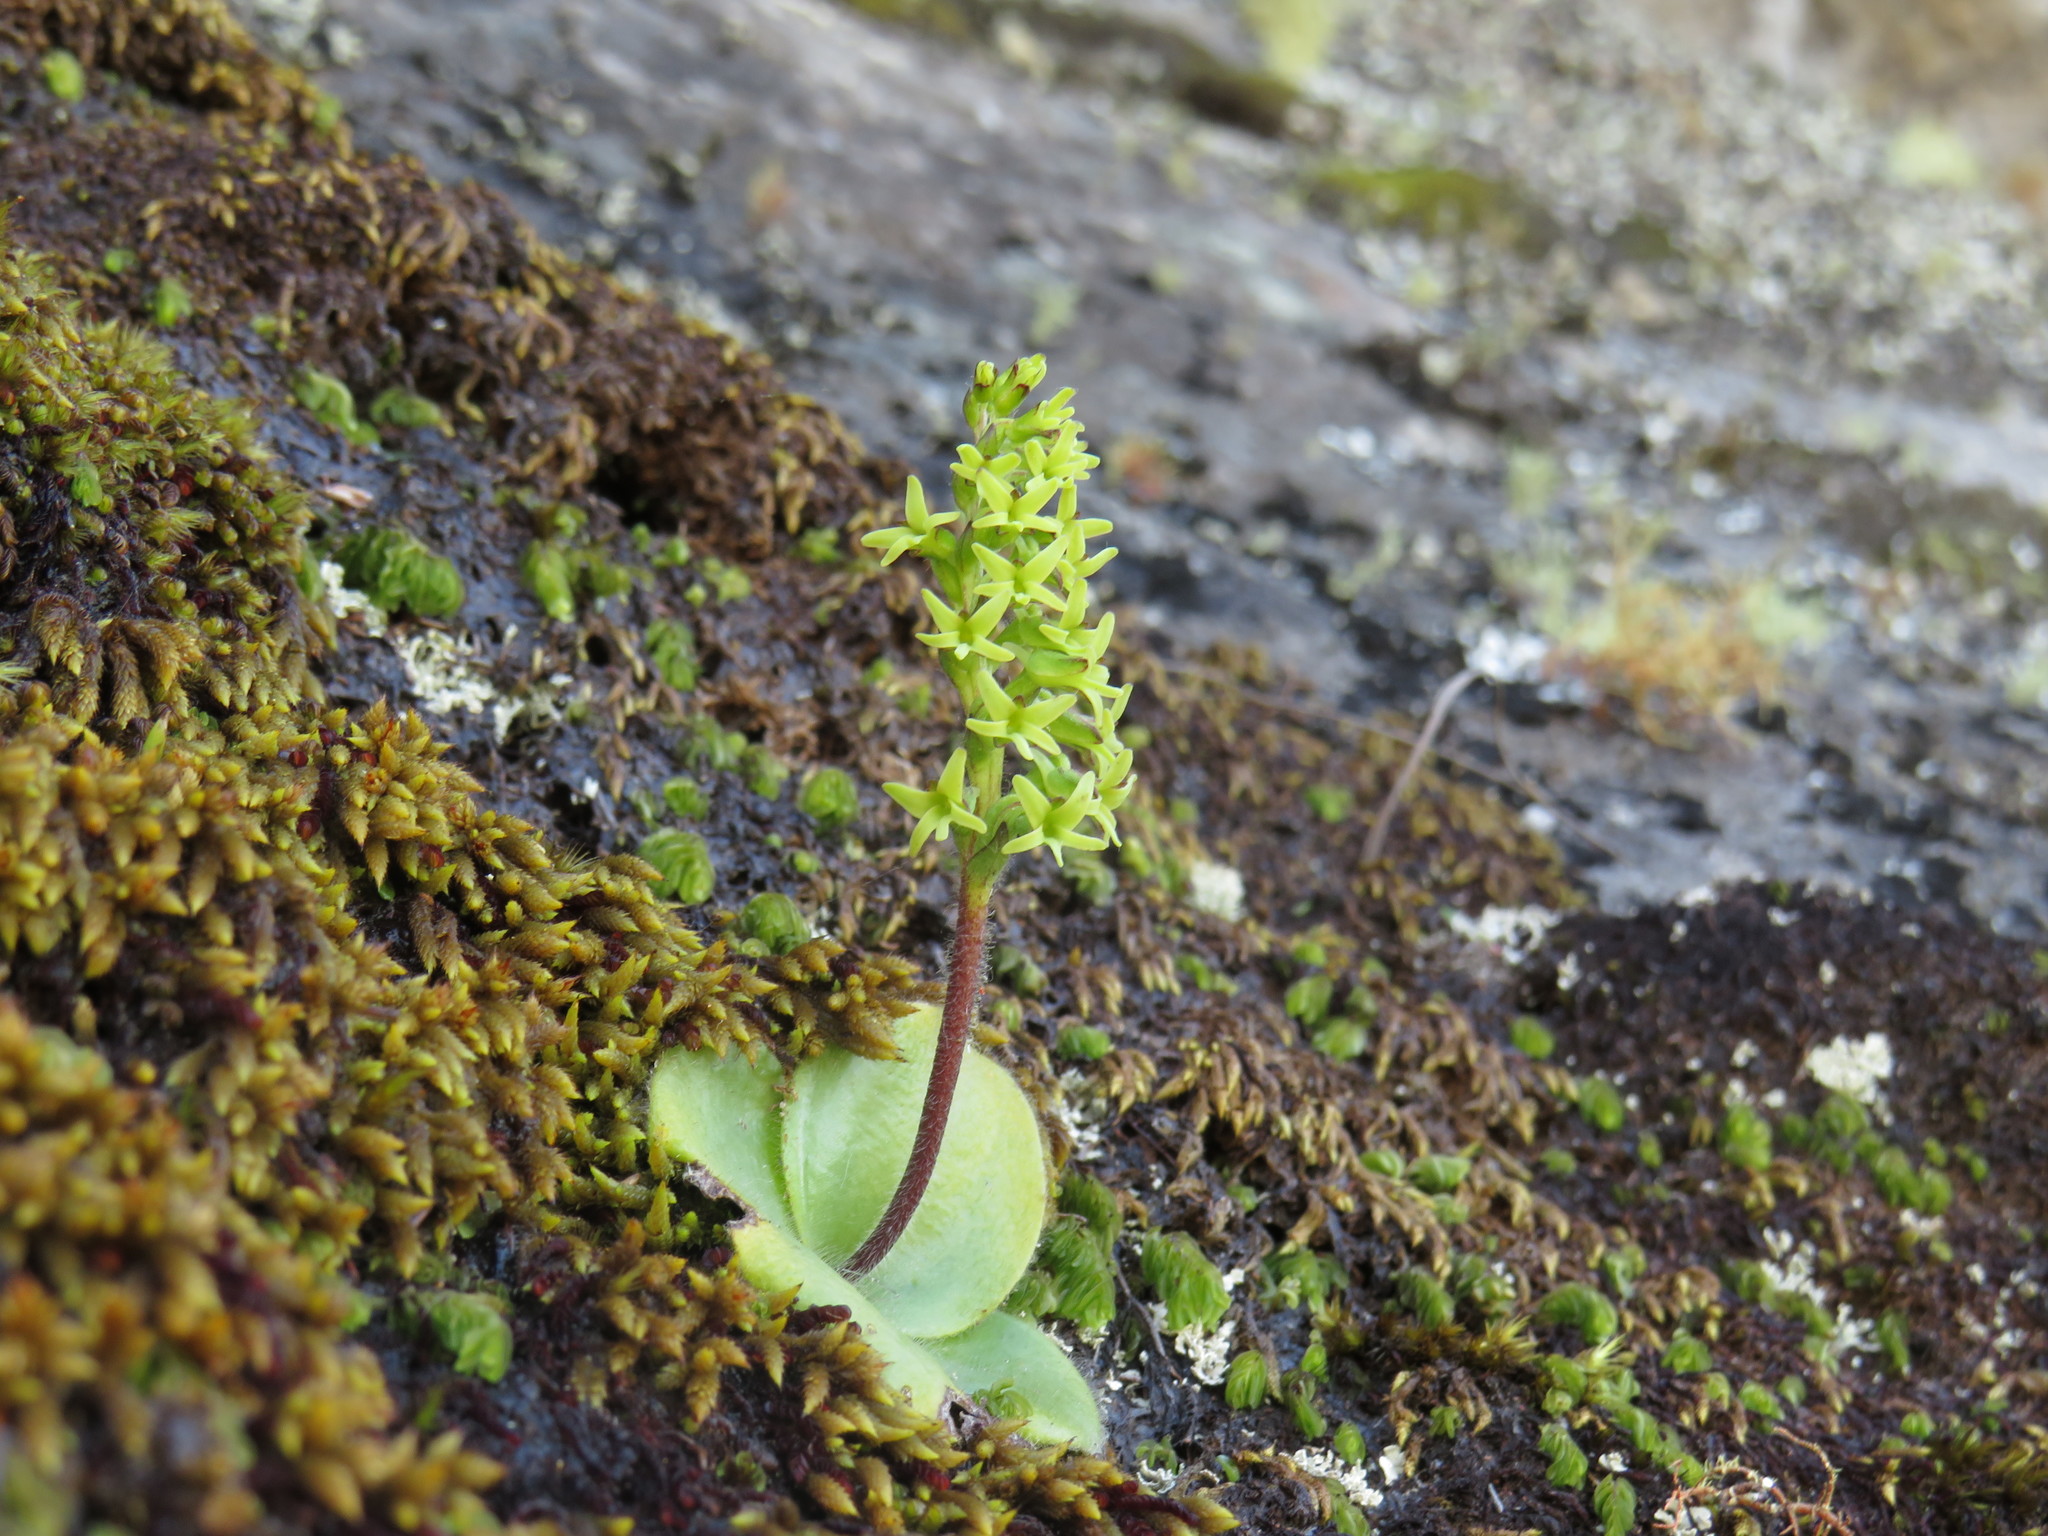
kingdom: Plantae
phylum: Tracheophyta
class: Liliopsida
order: Asparagales
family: Orchidaceae
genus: Holothrix
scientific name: Holothrix condensata
